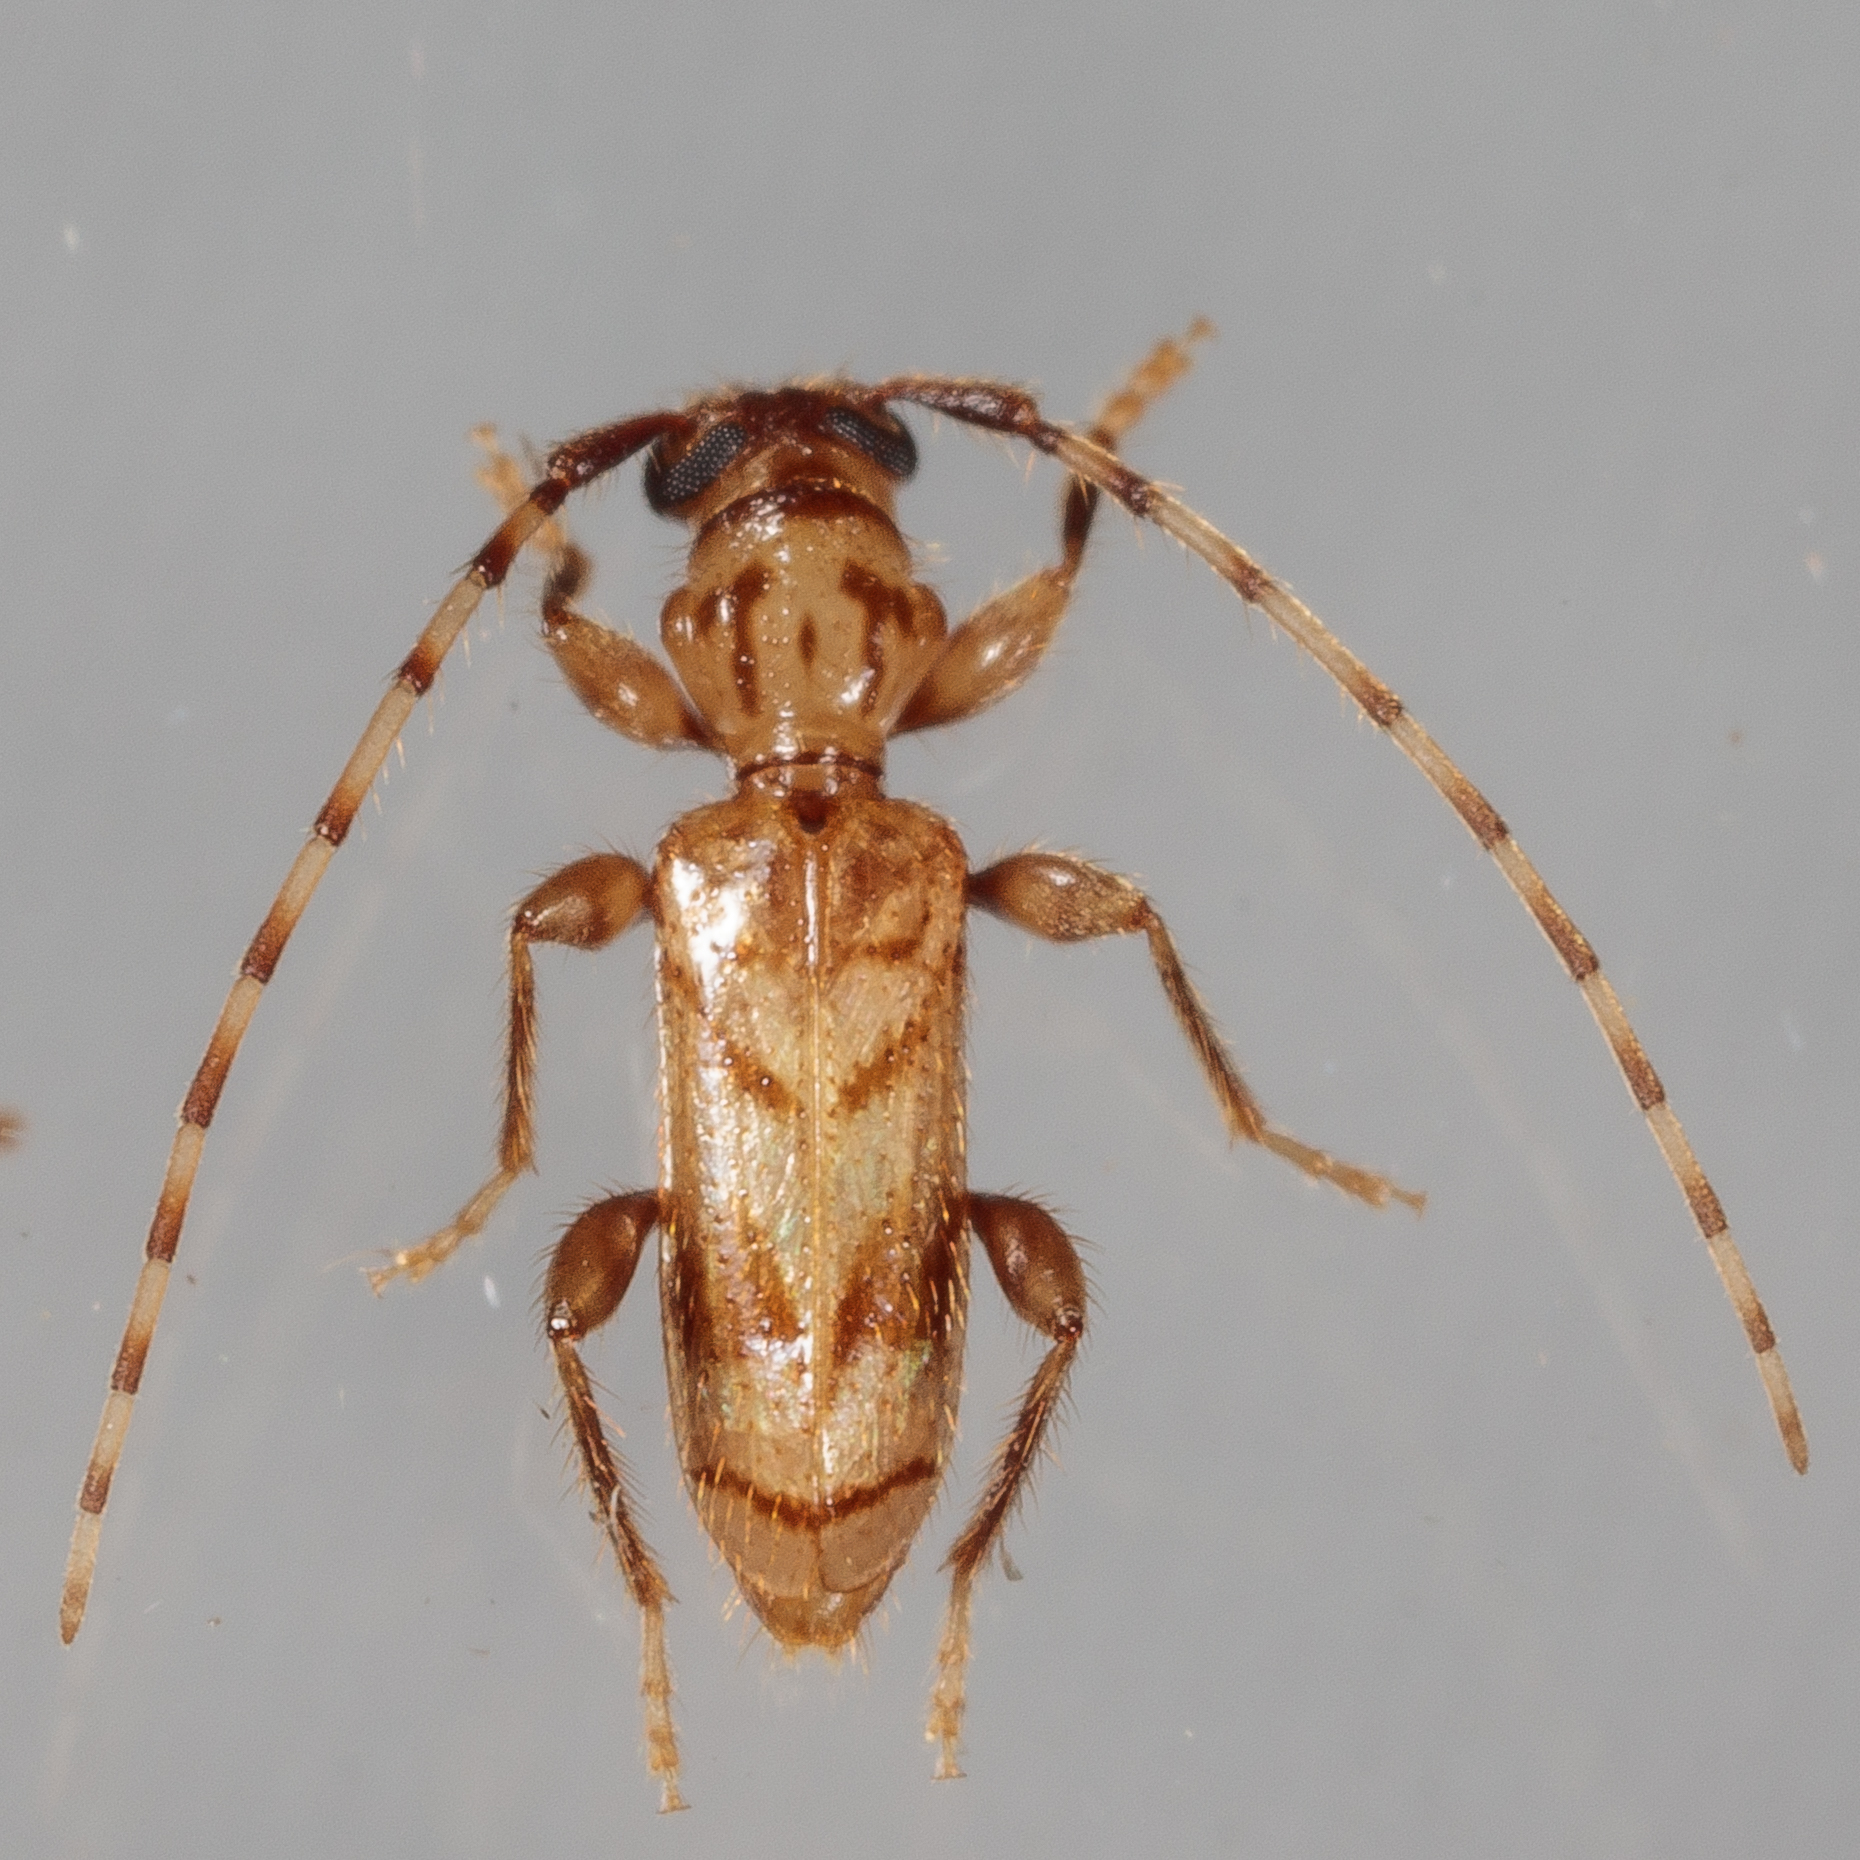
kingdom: Animalia
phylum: Arthropoda
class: Insecta
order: Coleoptera
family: Cerambycidae
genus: Obrium
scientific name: Obrium maculatum
